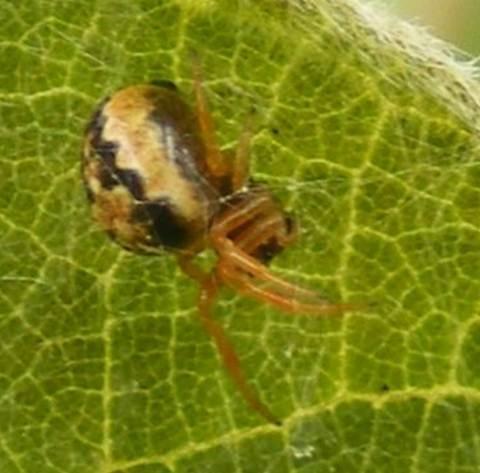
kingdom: Animalia
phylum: Arthropoda
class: Arachnida
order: Araneae
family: Araneidae
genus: Singa
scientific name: Singa albodorsata
